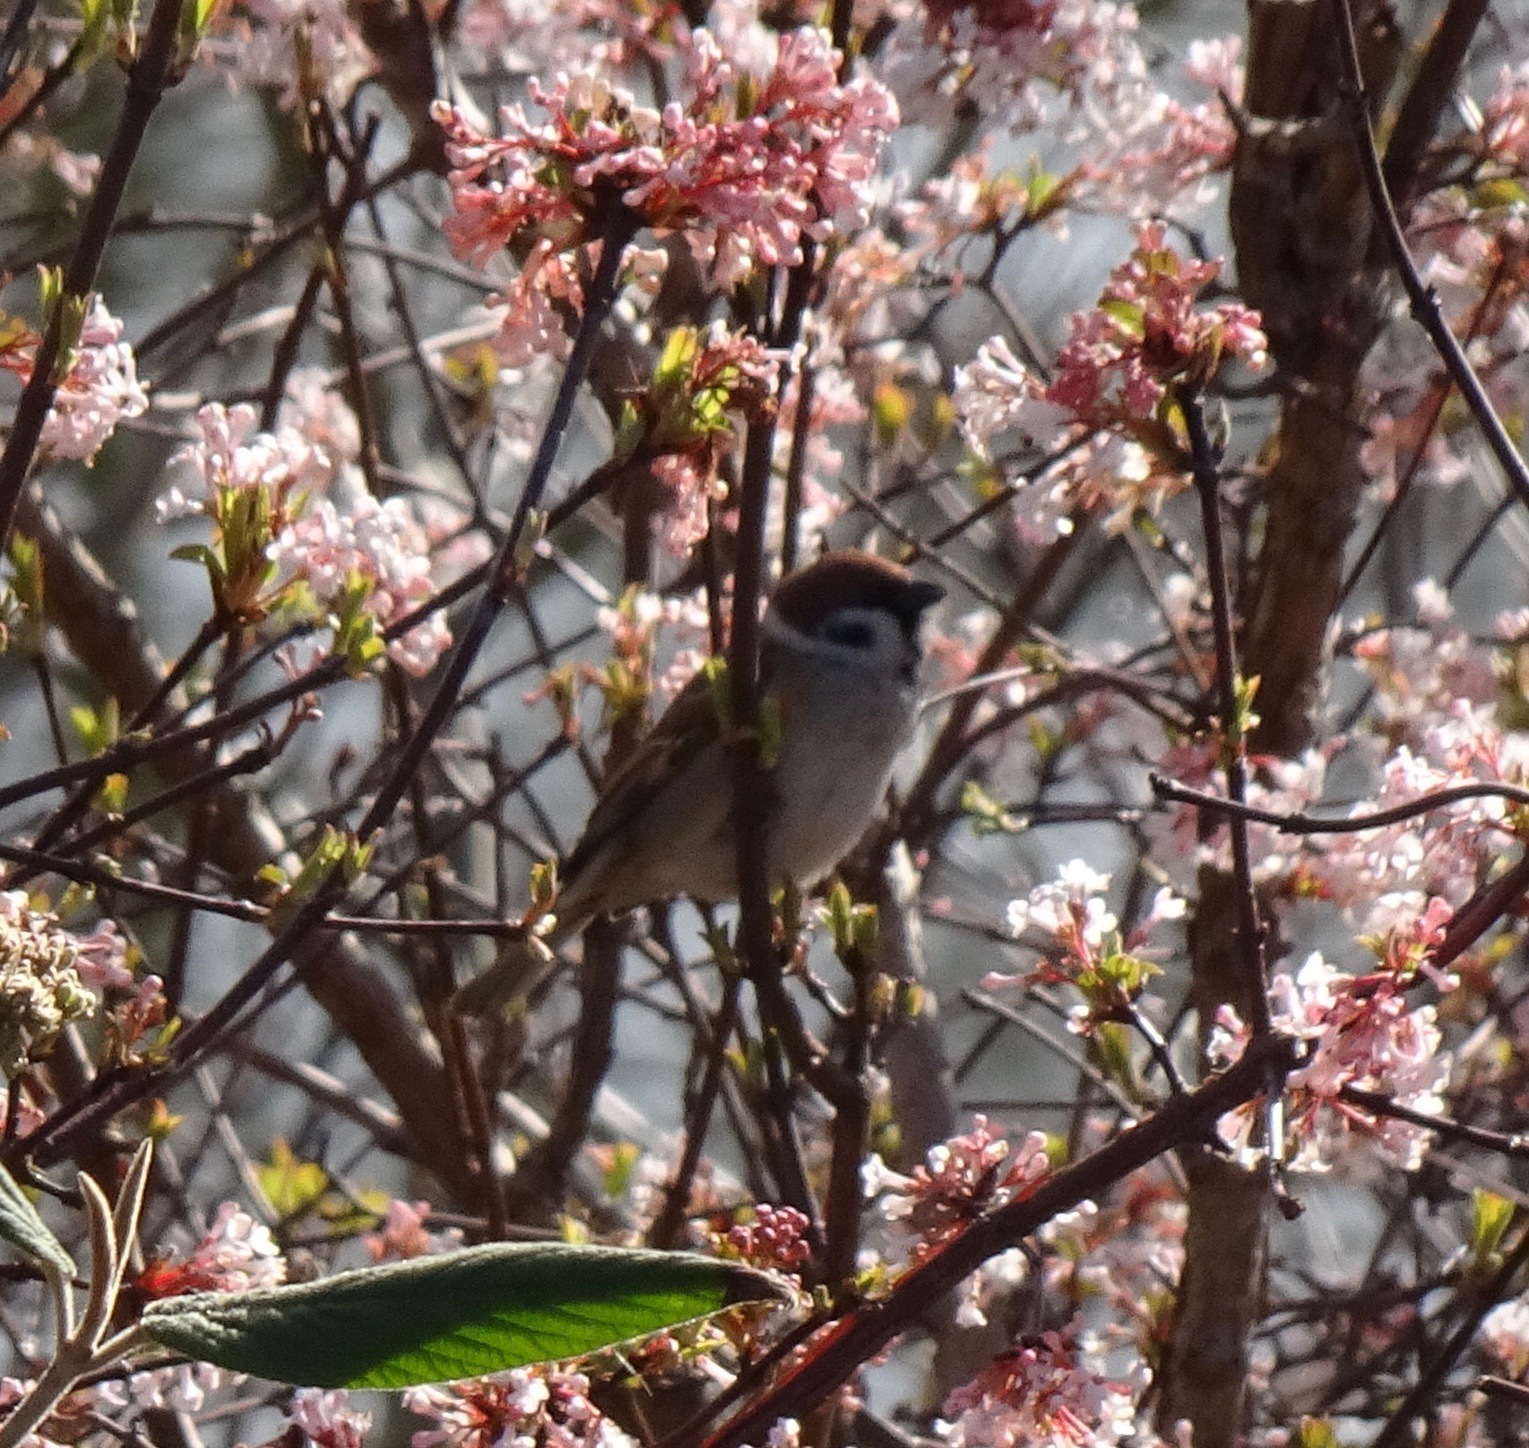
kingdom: Animalia
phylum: Chordata
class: Aves
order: Passeriformes
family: Passeridae
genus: Passer
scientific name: Passer montanus
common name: Eurasian tree sparrow
